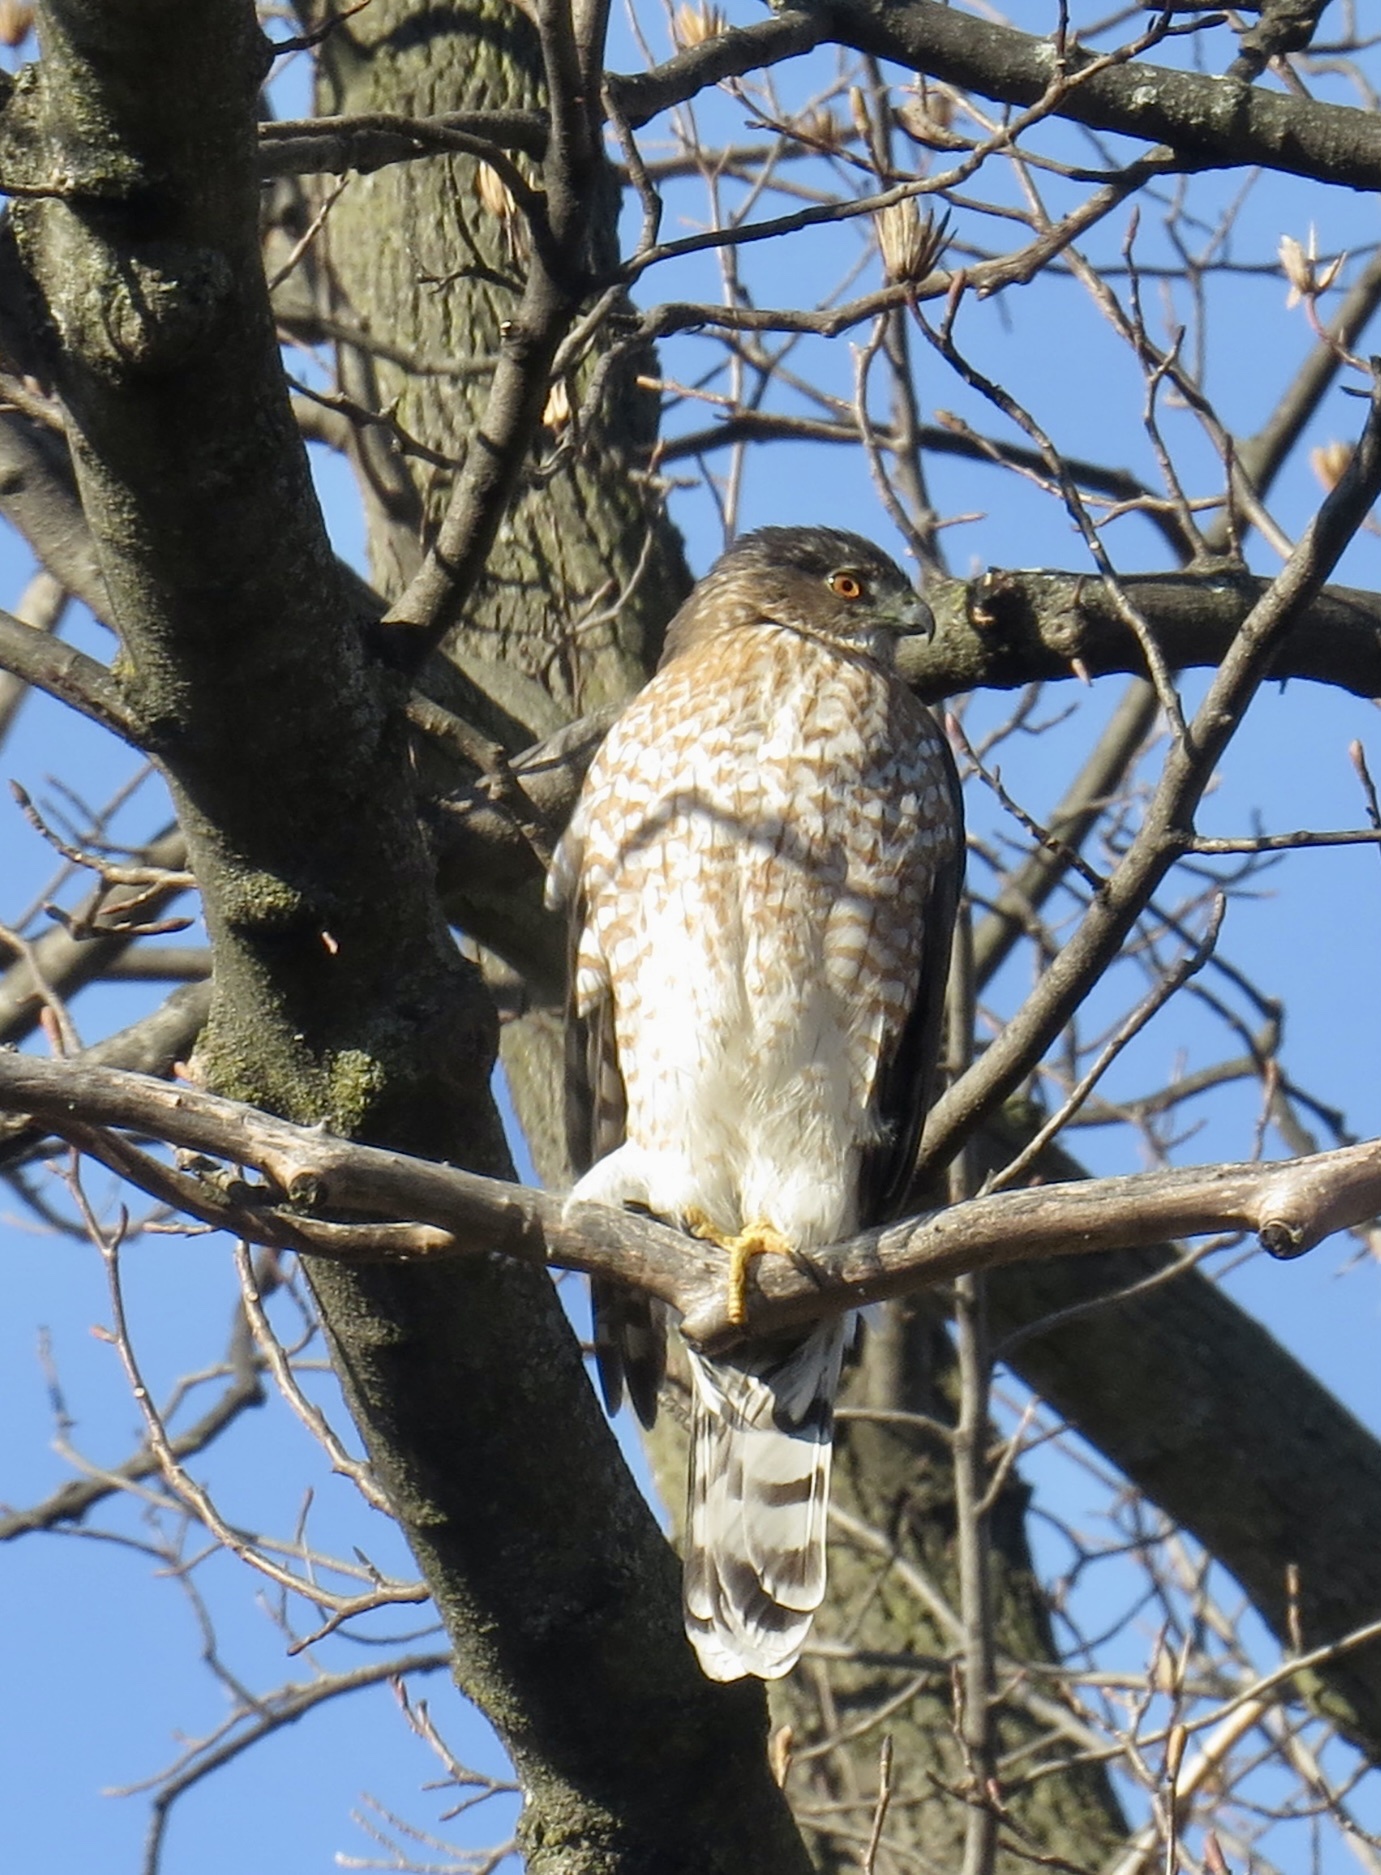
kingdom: Animalia
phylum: Chordata
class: Aves
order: Accipitriformes
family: Accipitridae
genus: Accipiter
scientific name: Accipiter cooperii
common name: Cooper's hawk
